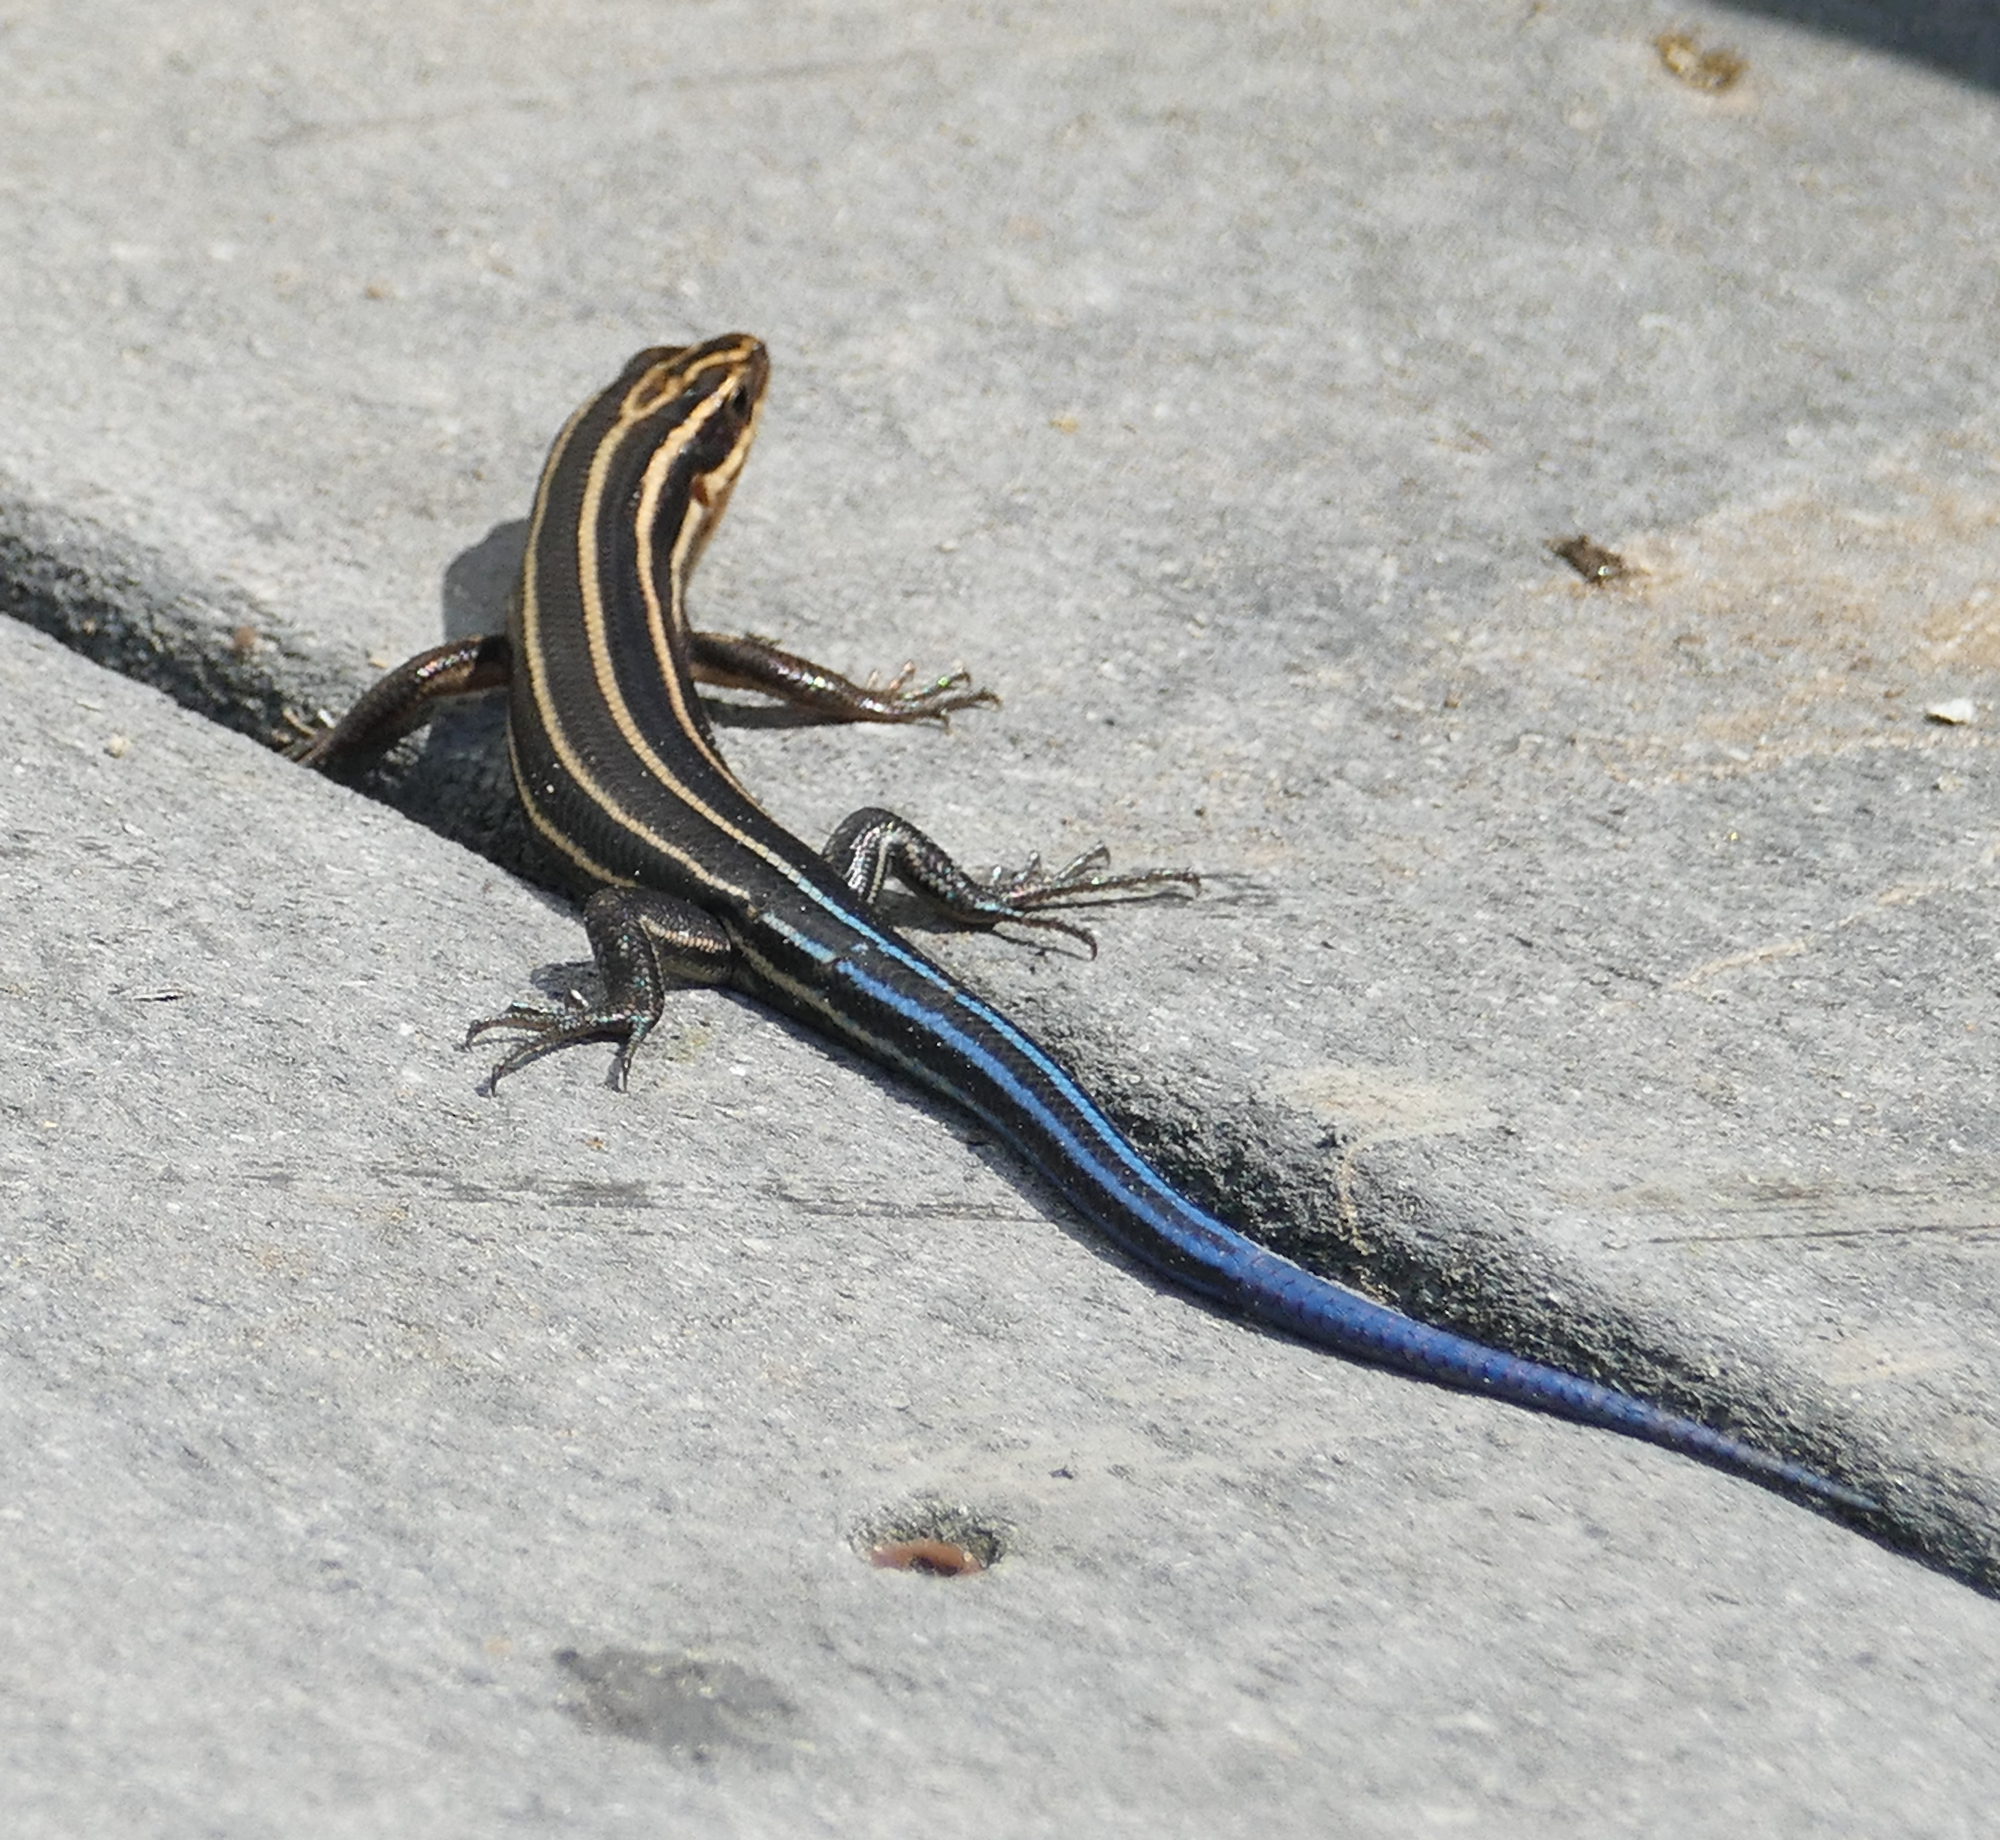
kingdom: Animalia
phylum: Chordata
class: Squamata
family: Scincidae
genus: Plestiodon
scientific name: Plestiodon fasciatus
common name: Five-lined skink
